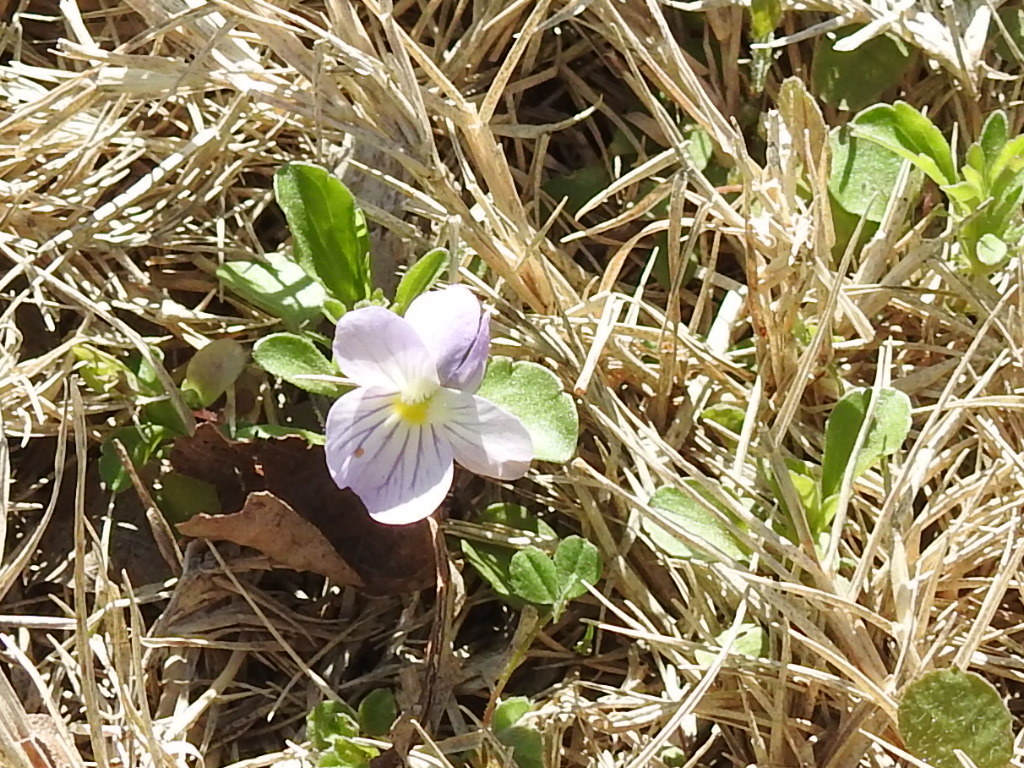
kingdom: Plantae
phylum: Tracheophyta
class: Magnoliopsida
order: Malpighiales
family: Violaceae
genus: Viola
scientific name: Viola rafinesquei
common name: American field pansy
